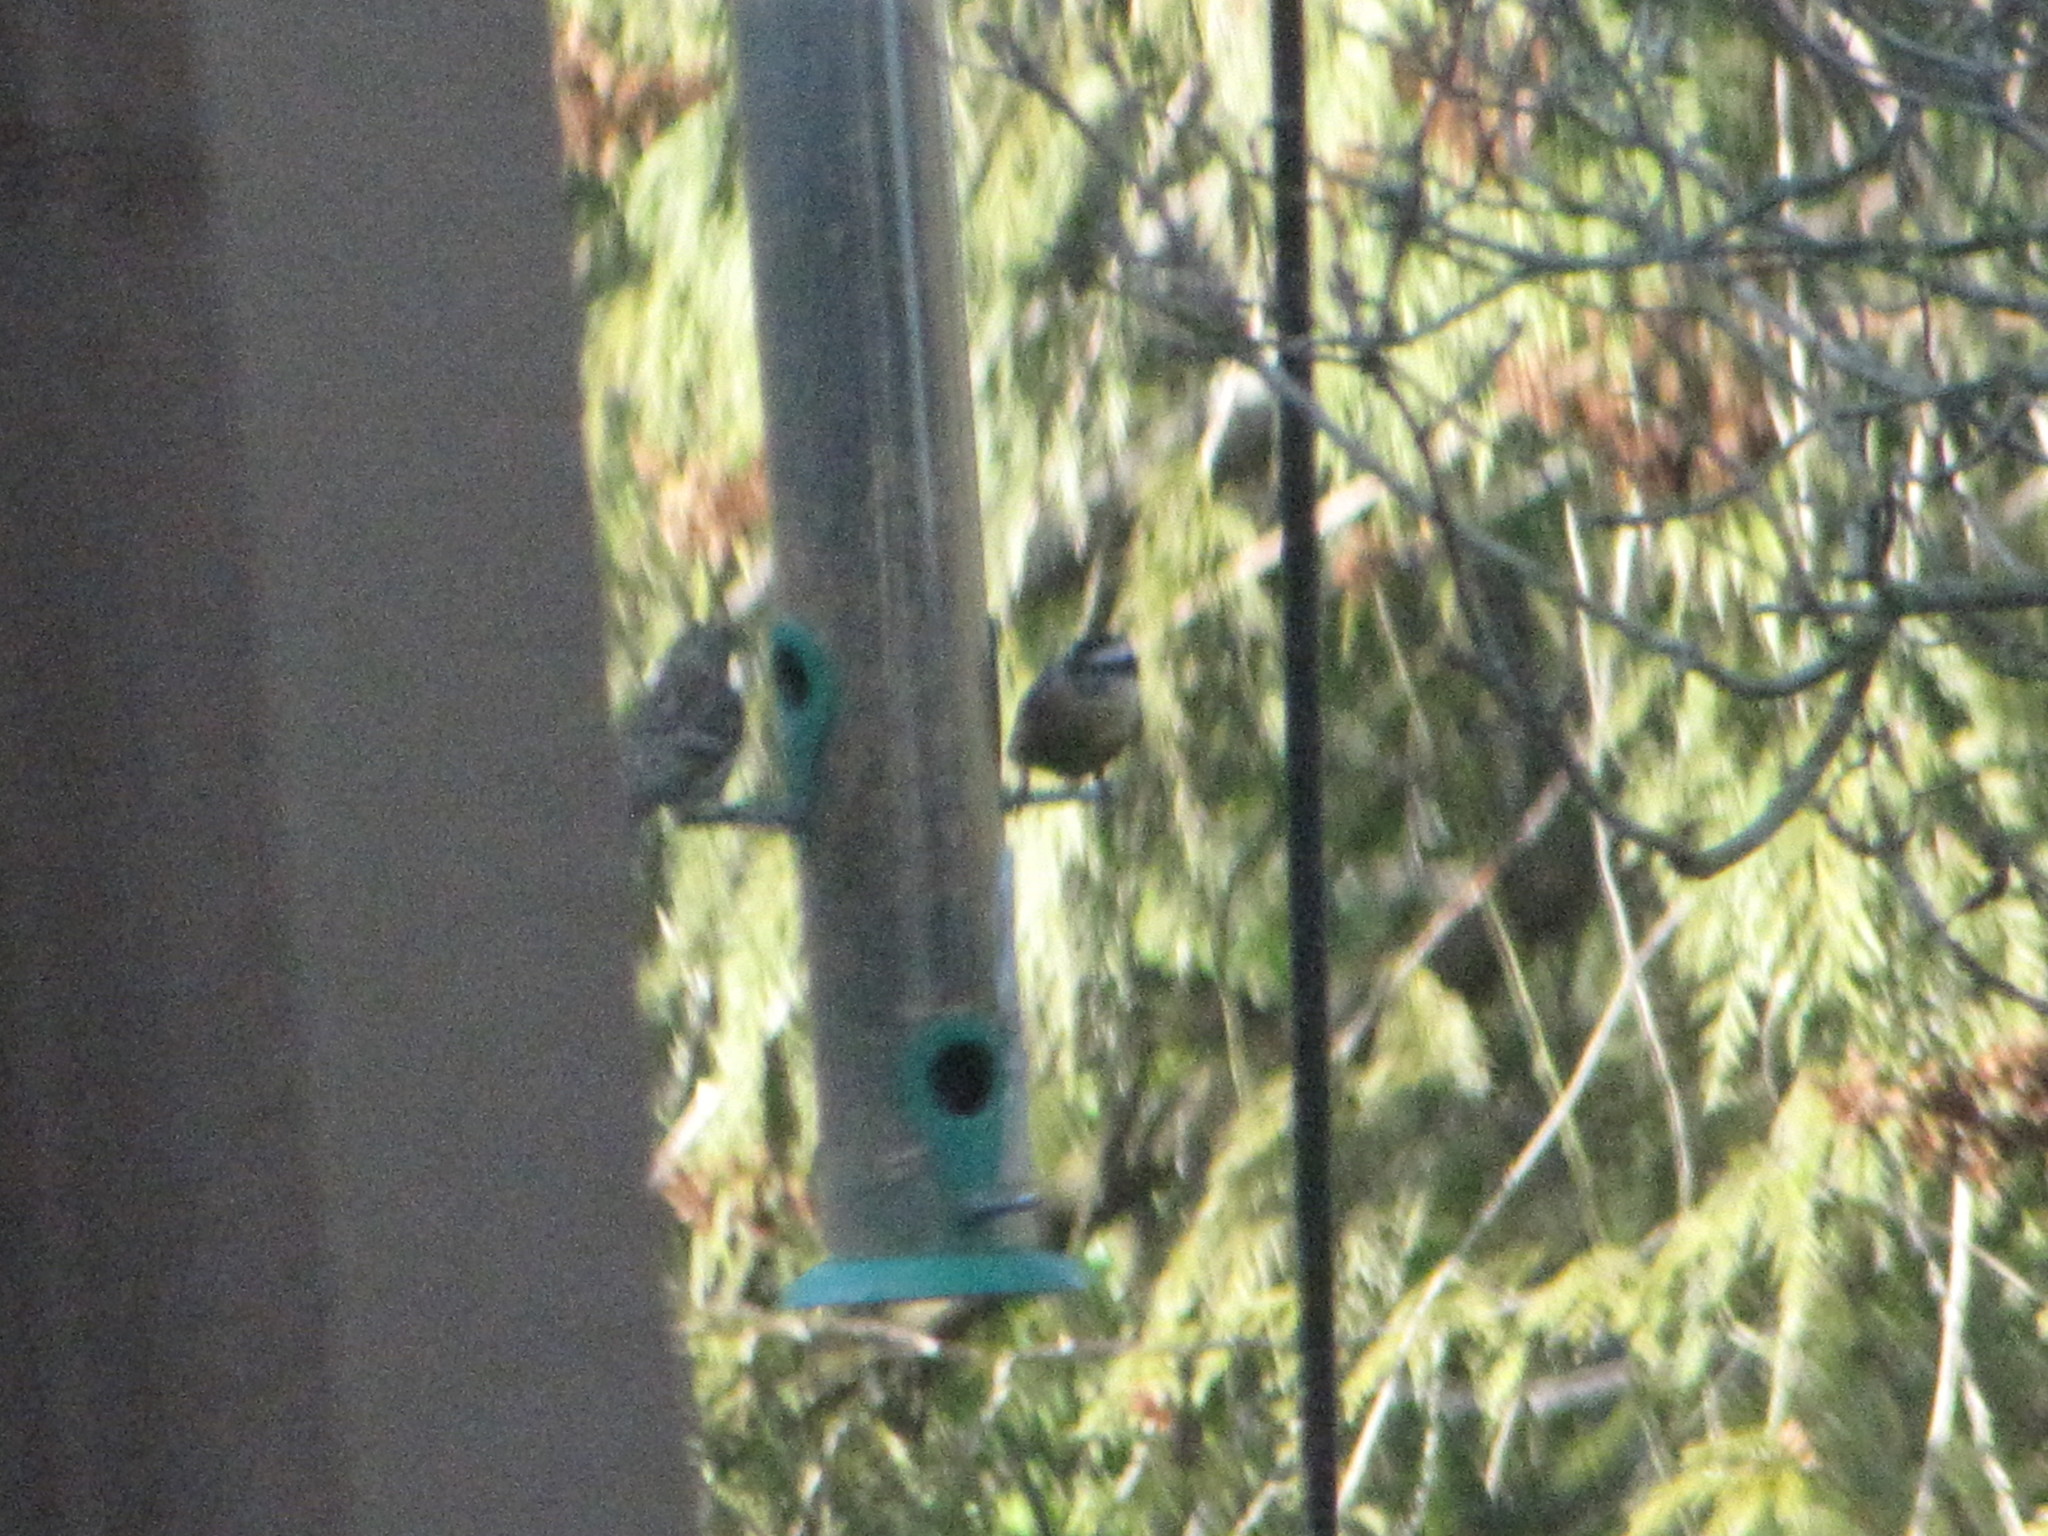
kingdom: Animalia
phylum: Chordata
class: Aves
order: Passeriformes
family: Sittidae
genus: Sitta
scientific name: Sitta canadensis
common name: Red-breasted nuthatch
